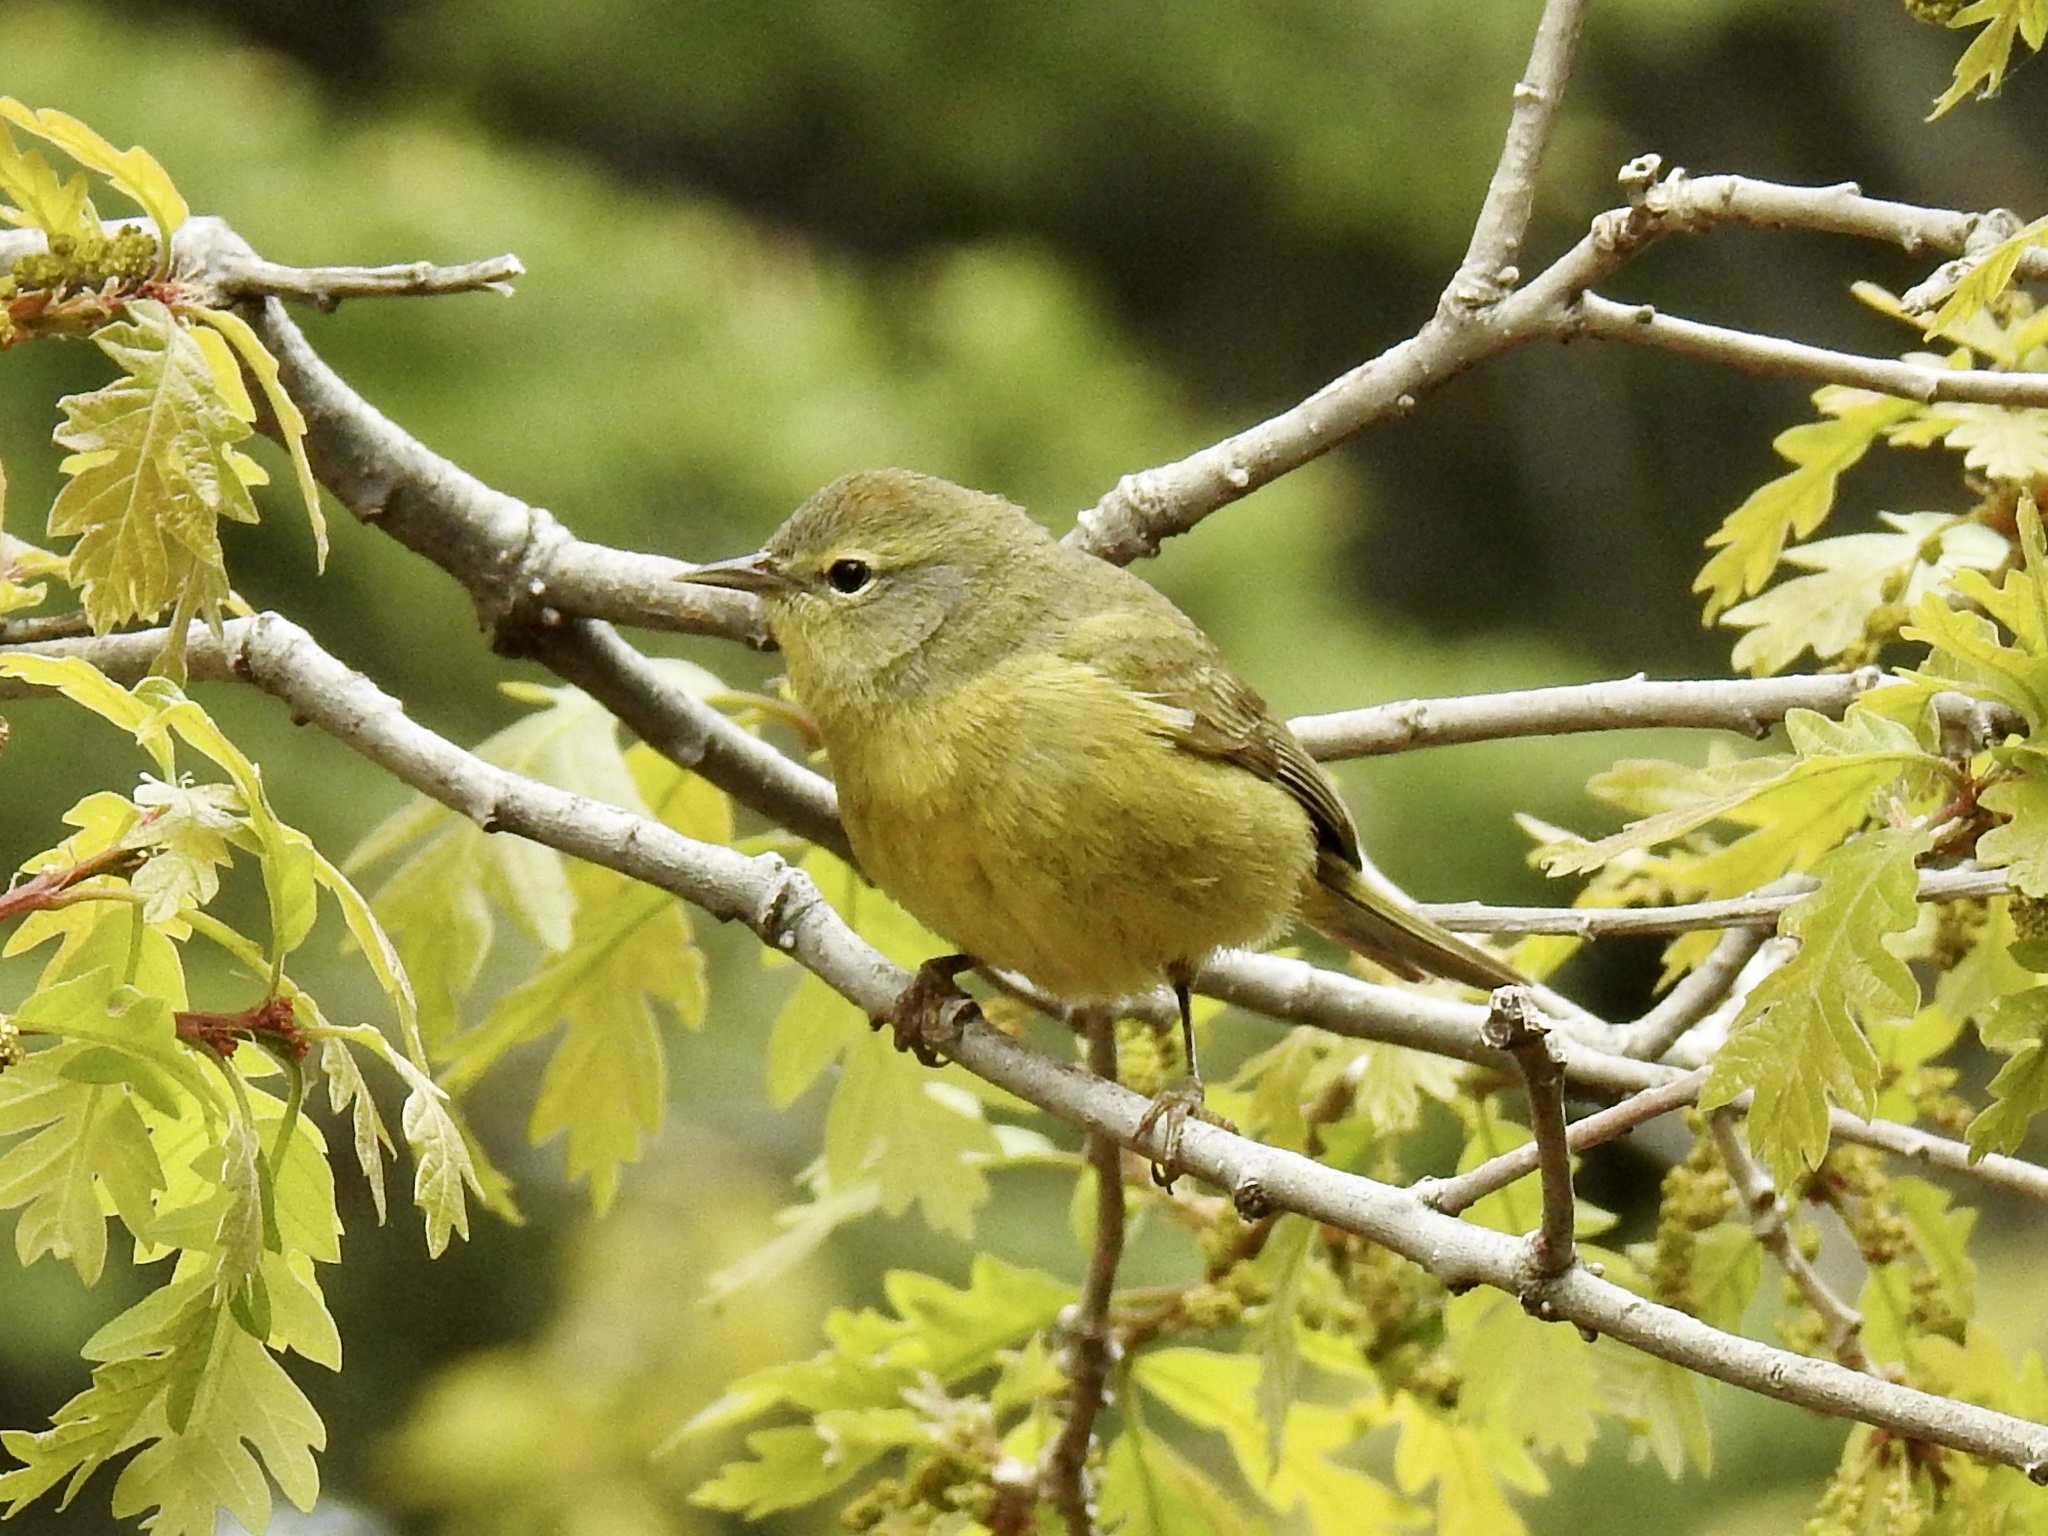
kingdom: Animalia
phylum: Chordata
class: Aves
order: Passeriformes
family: Parulidae
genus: Leiothlypis
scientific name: Leiothlypis celata
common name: Orange-crowned warbler
